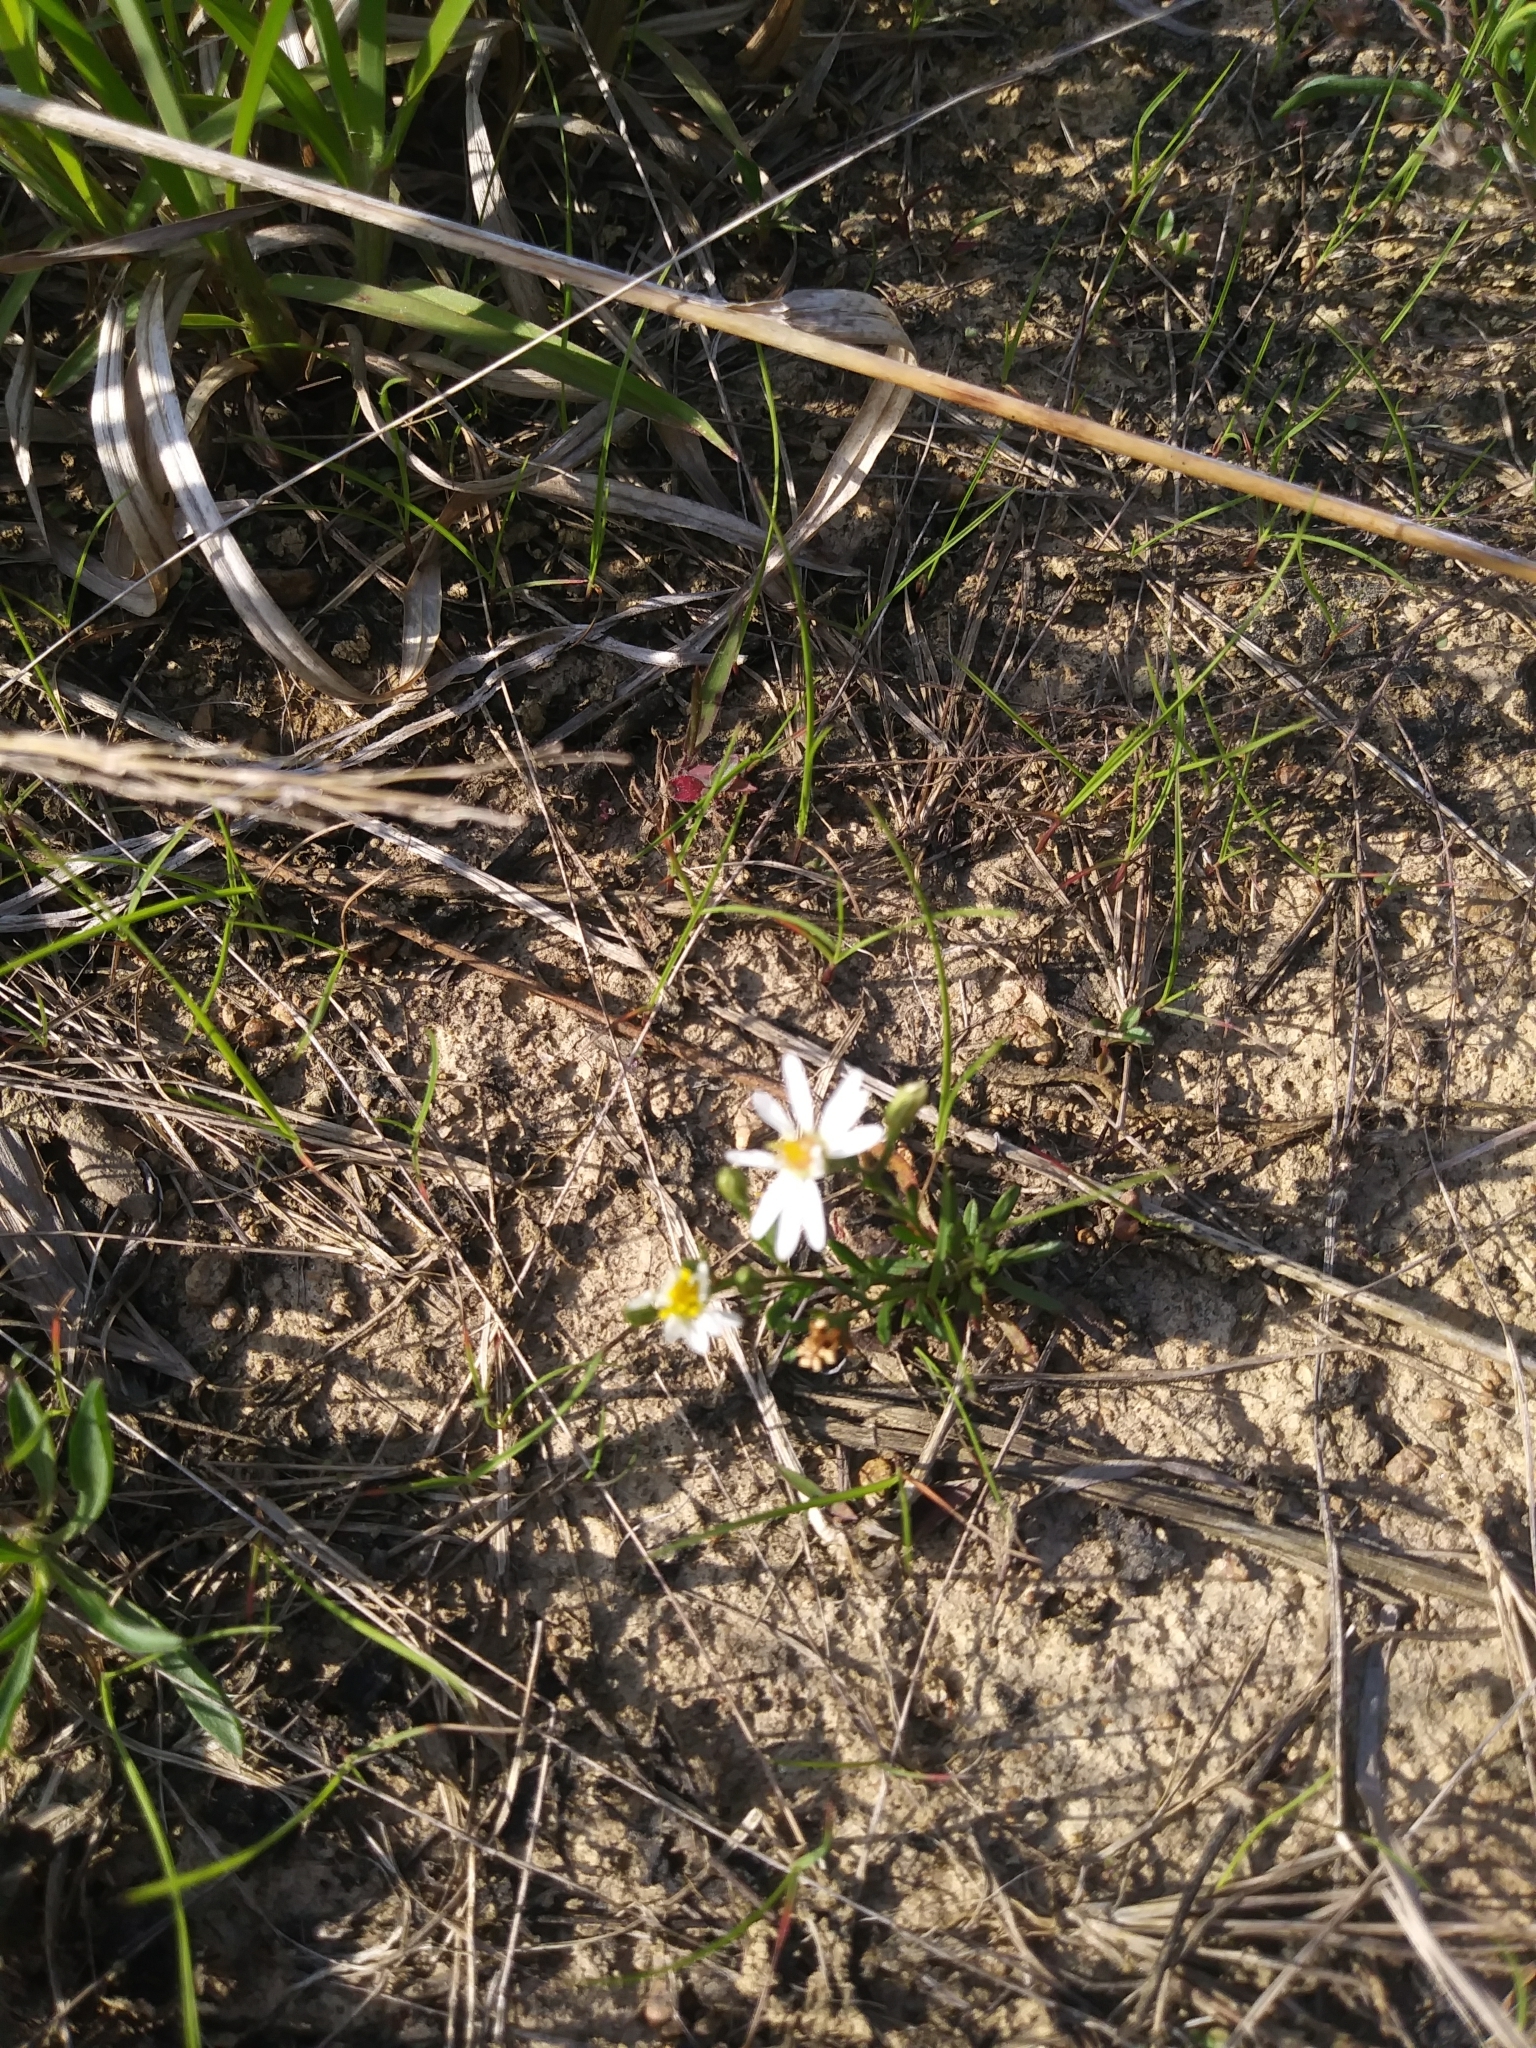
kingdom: Plantae
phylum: Tracheophyta
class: Magnoliopsida
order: Asterales
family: Asteraceae
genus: Symphyotrichum
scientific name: Symphyotrichum depauperatum
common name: Serpentine aster
